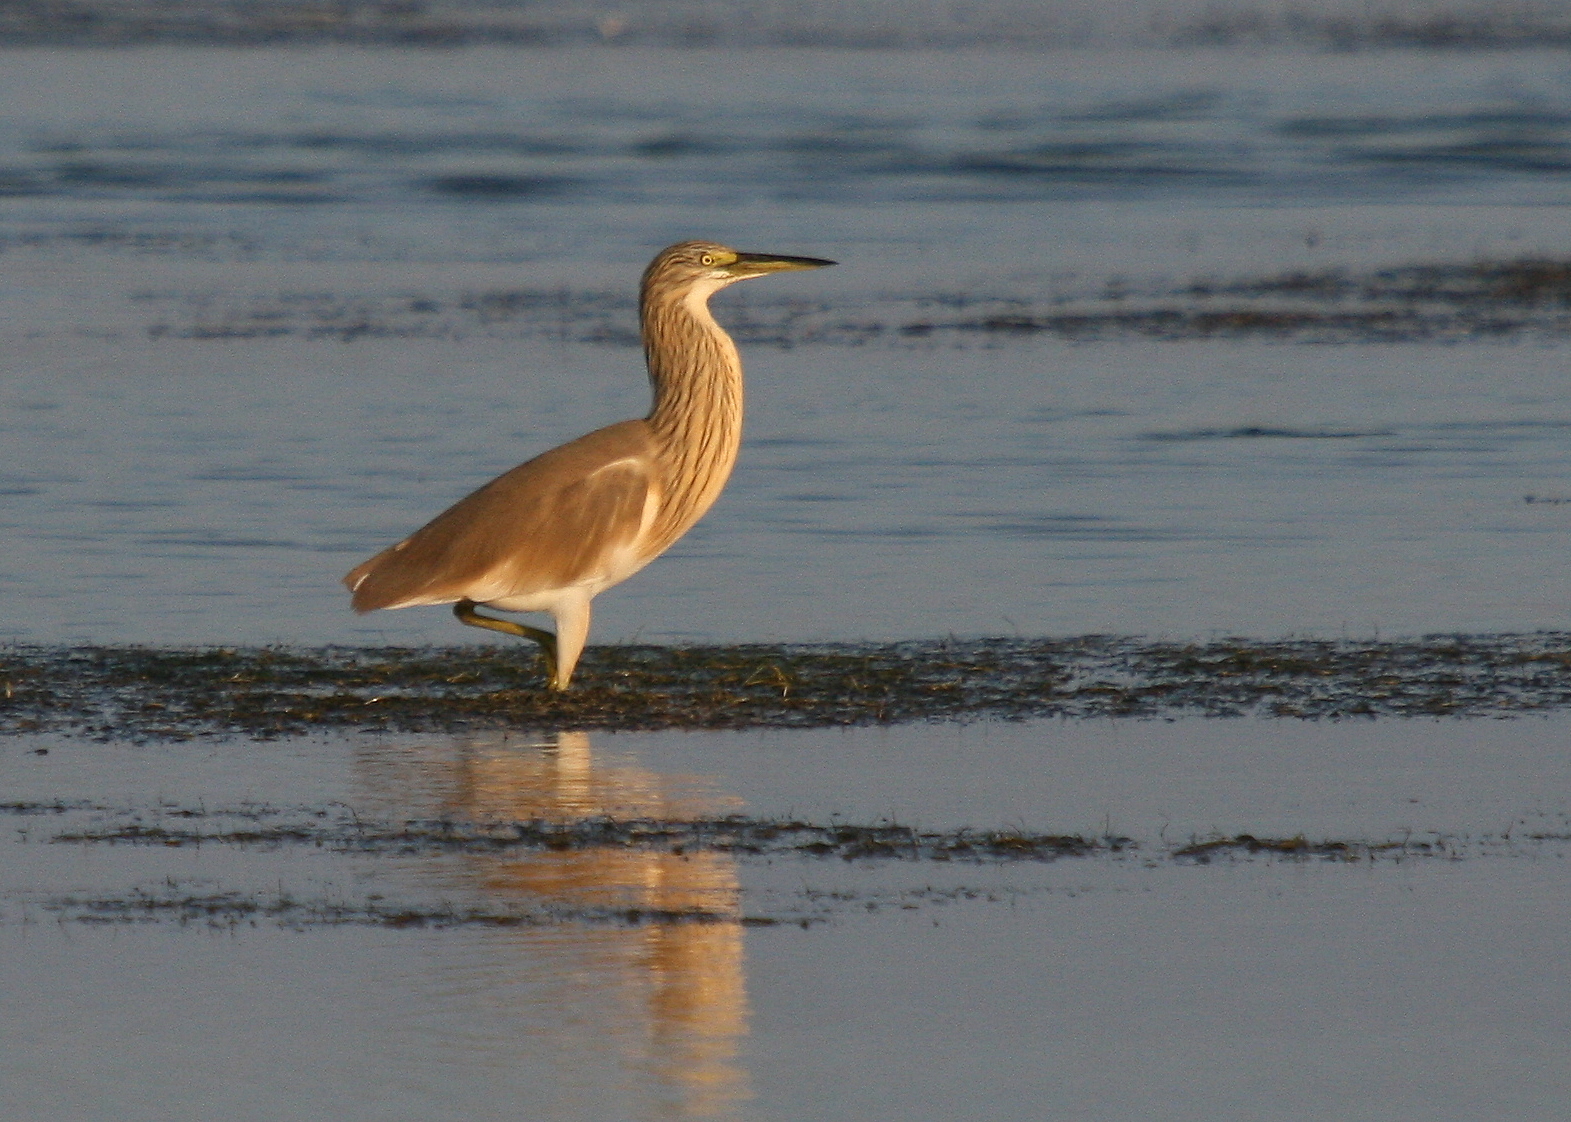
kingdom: Animalia
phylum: Chordata
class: Aves
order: Pelecaniformes
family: Ardeidae
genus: Ardeola
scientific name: Ardeola ralloides
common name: Squacco heron
